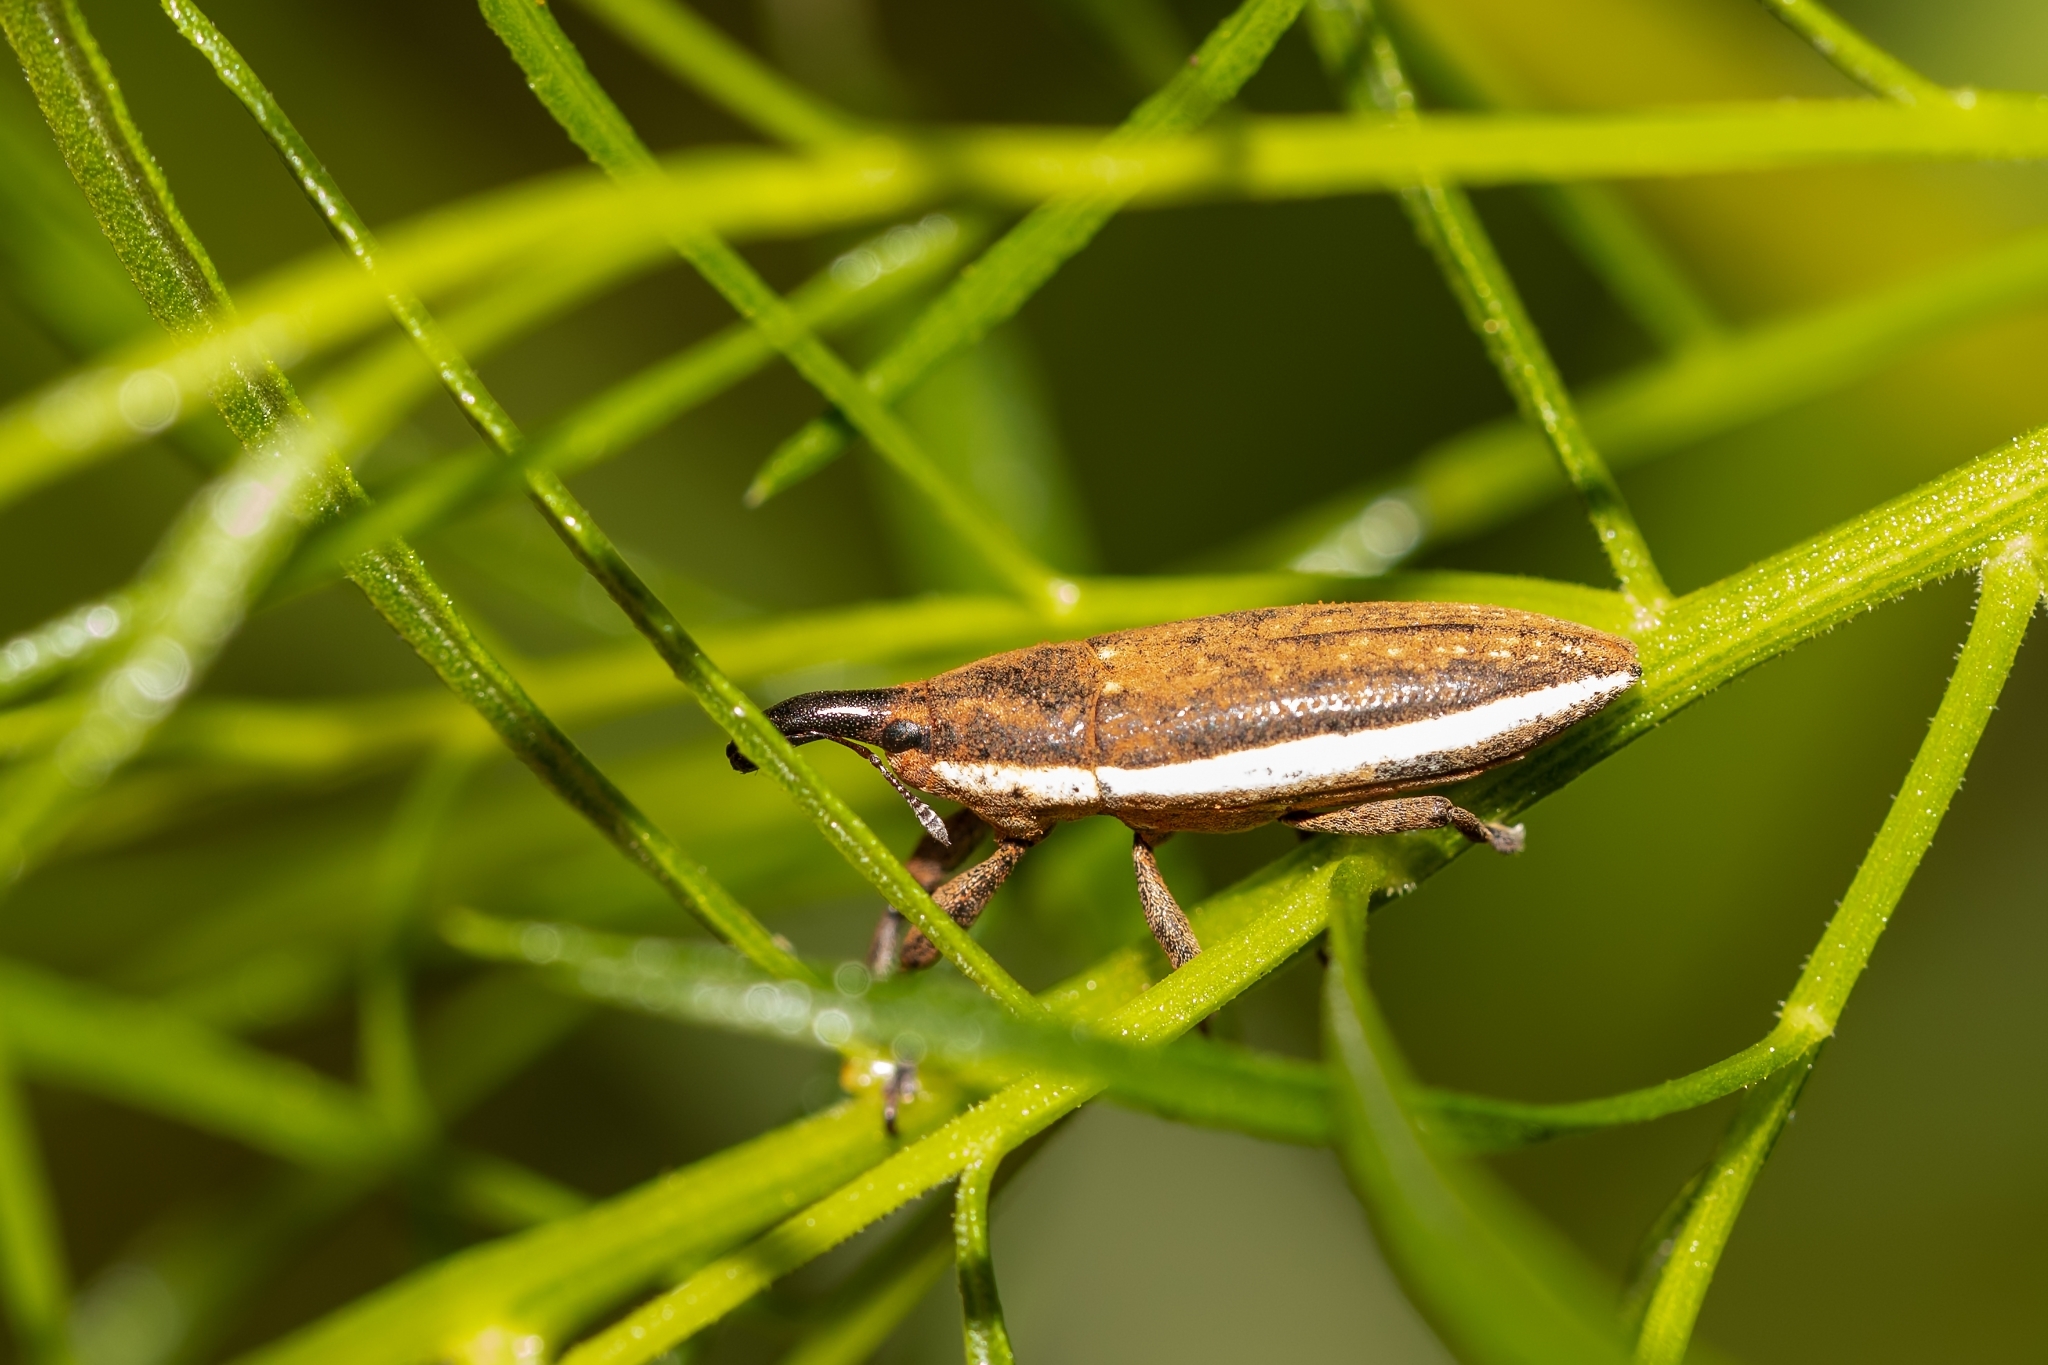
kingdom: Animalia
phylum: Arthropoda
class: Insecta
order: Coleoptera
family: Curculionidae
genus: Lixus
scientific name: Lixus amplexus
